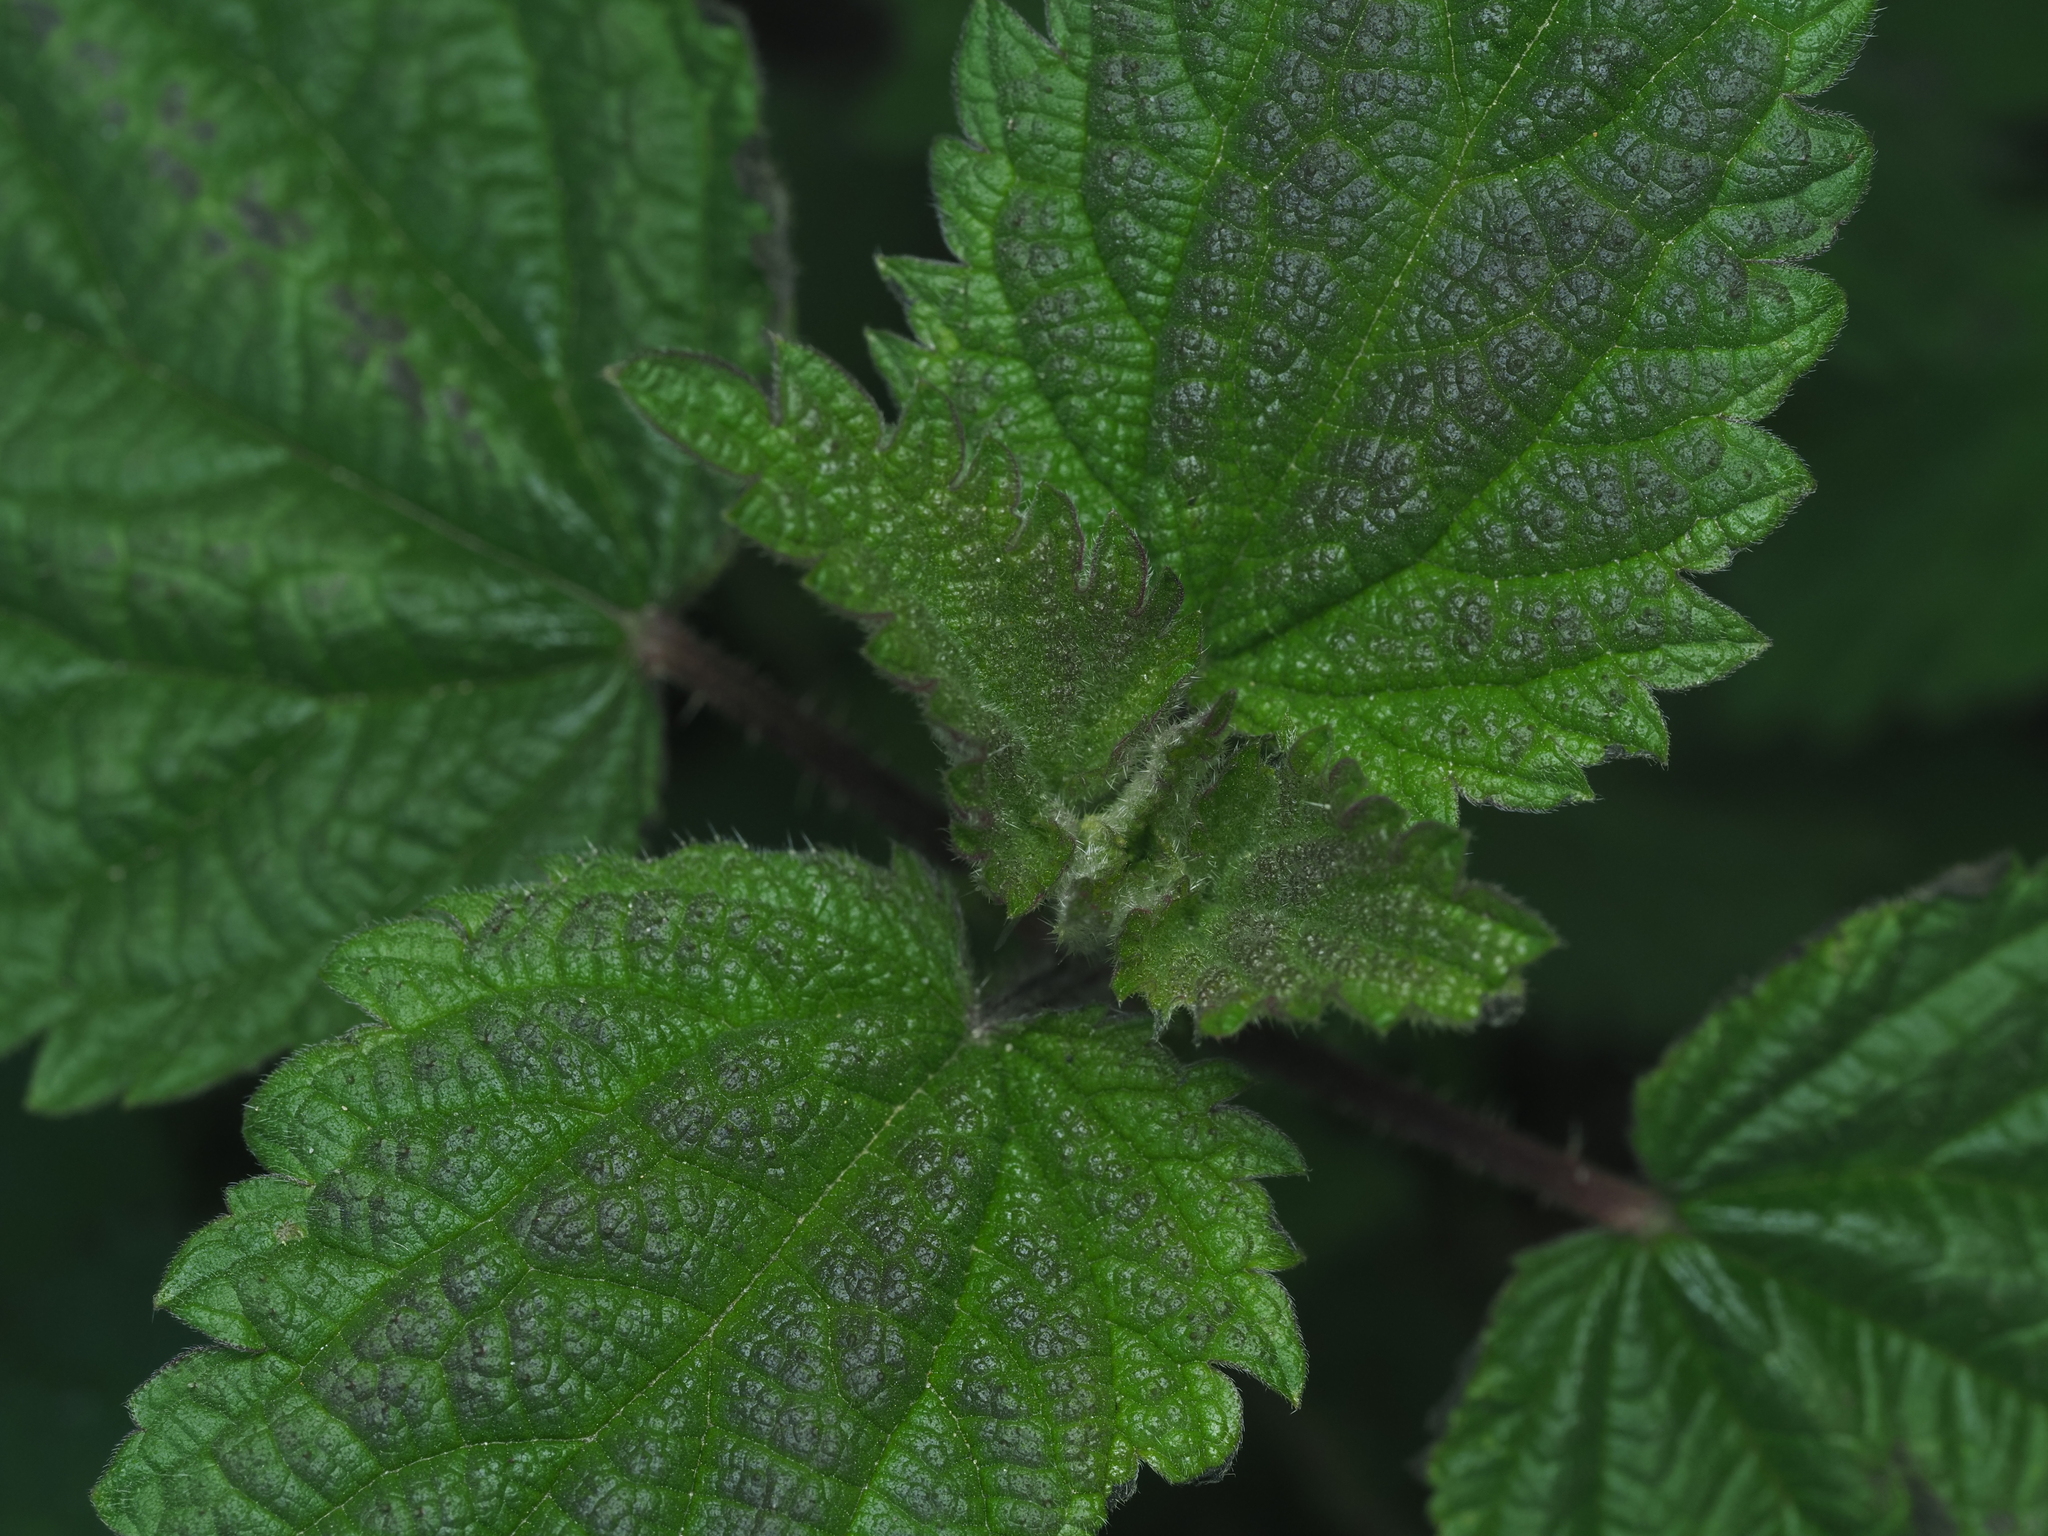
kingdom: Plantae
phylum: Tracheophyta
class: Magnoliopsida
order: Rosales
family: Urticaceae
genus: Urtica
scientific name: Urtica dioica
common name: Common nettle
